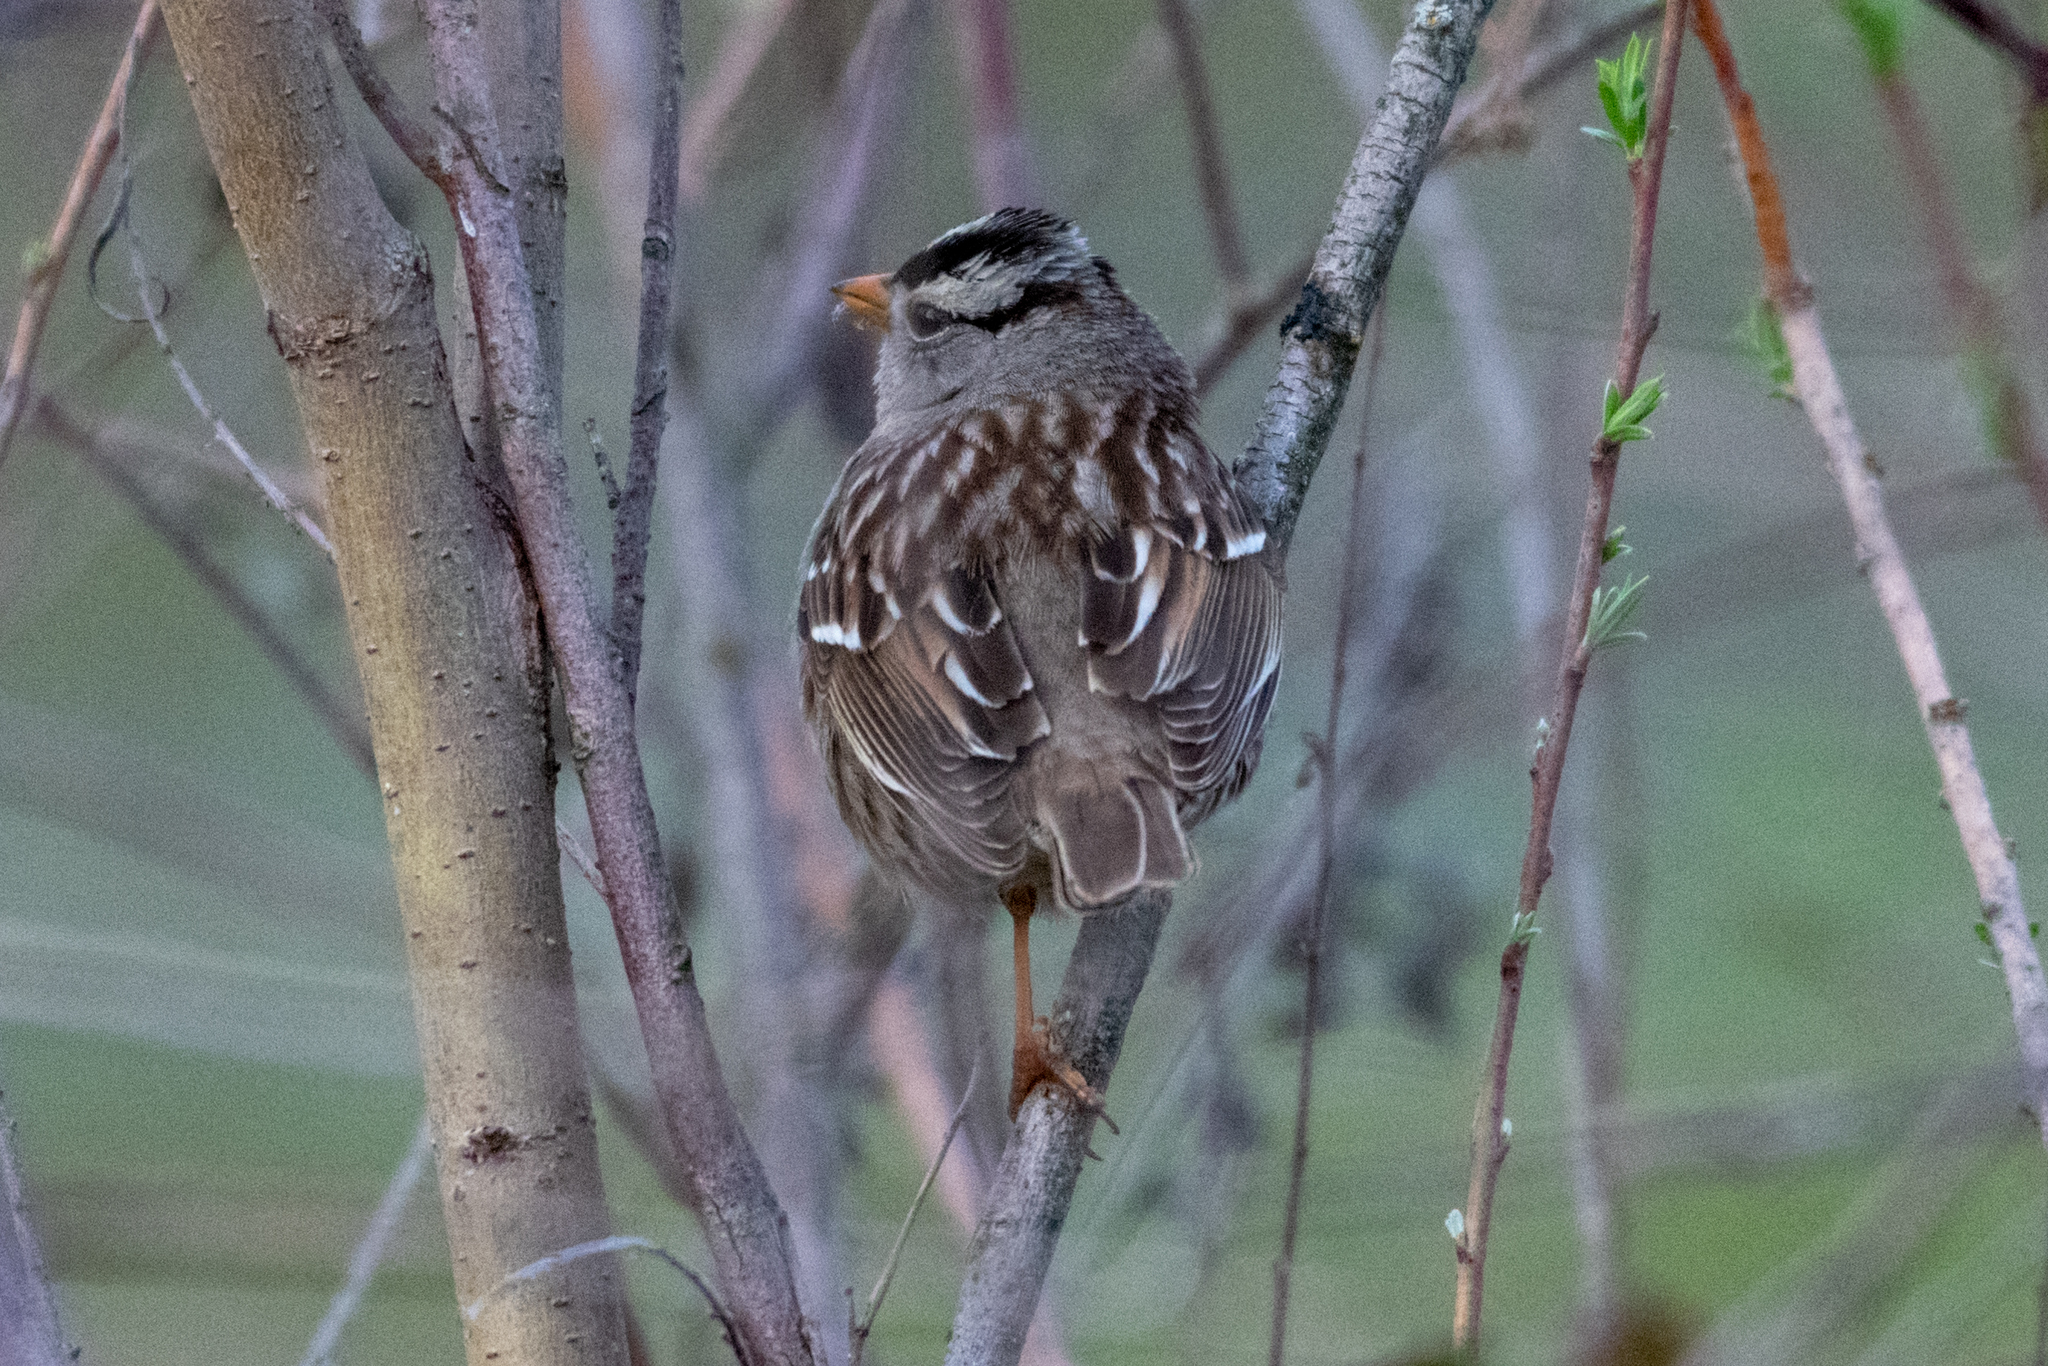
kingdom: Animalia
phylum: Chordata
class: Aves
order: Passeriformes
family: Passerellidae
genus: Zonotrichia
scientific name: Zonotrichia leucophrys
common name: White-crowned sparrow
